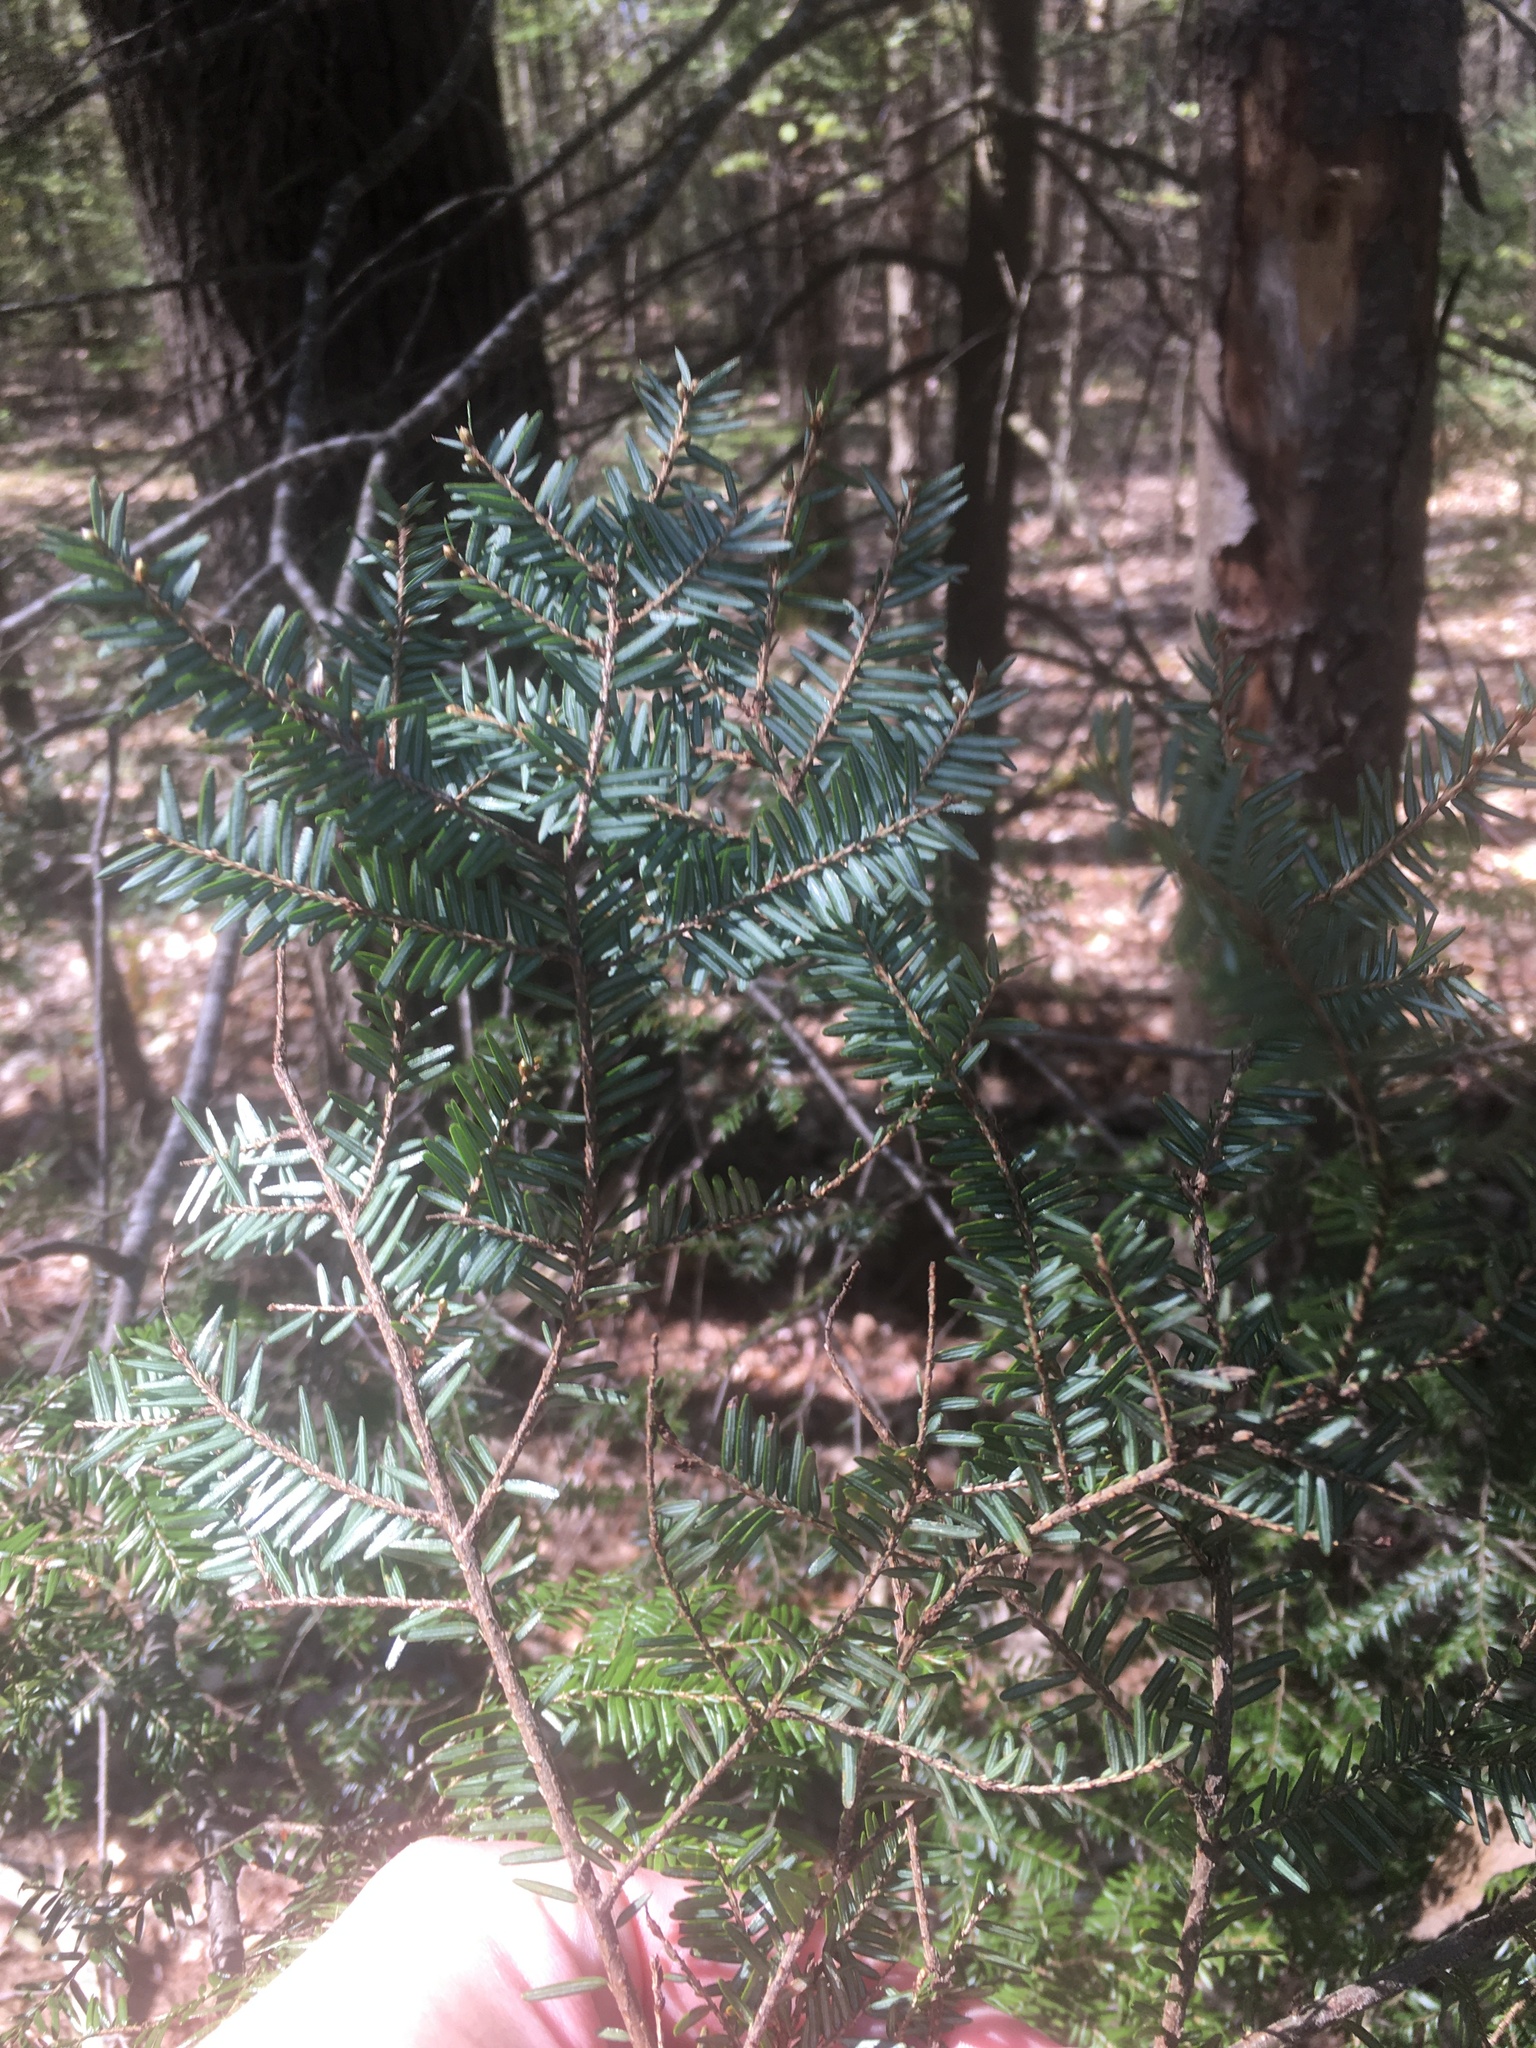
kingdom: Plantae
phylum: Tracheophyta
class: Pinopsida
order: Pinales
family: Pinaceae
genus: Tsuga
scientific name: Tsuga canadensis
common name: Eastern hemlock
